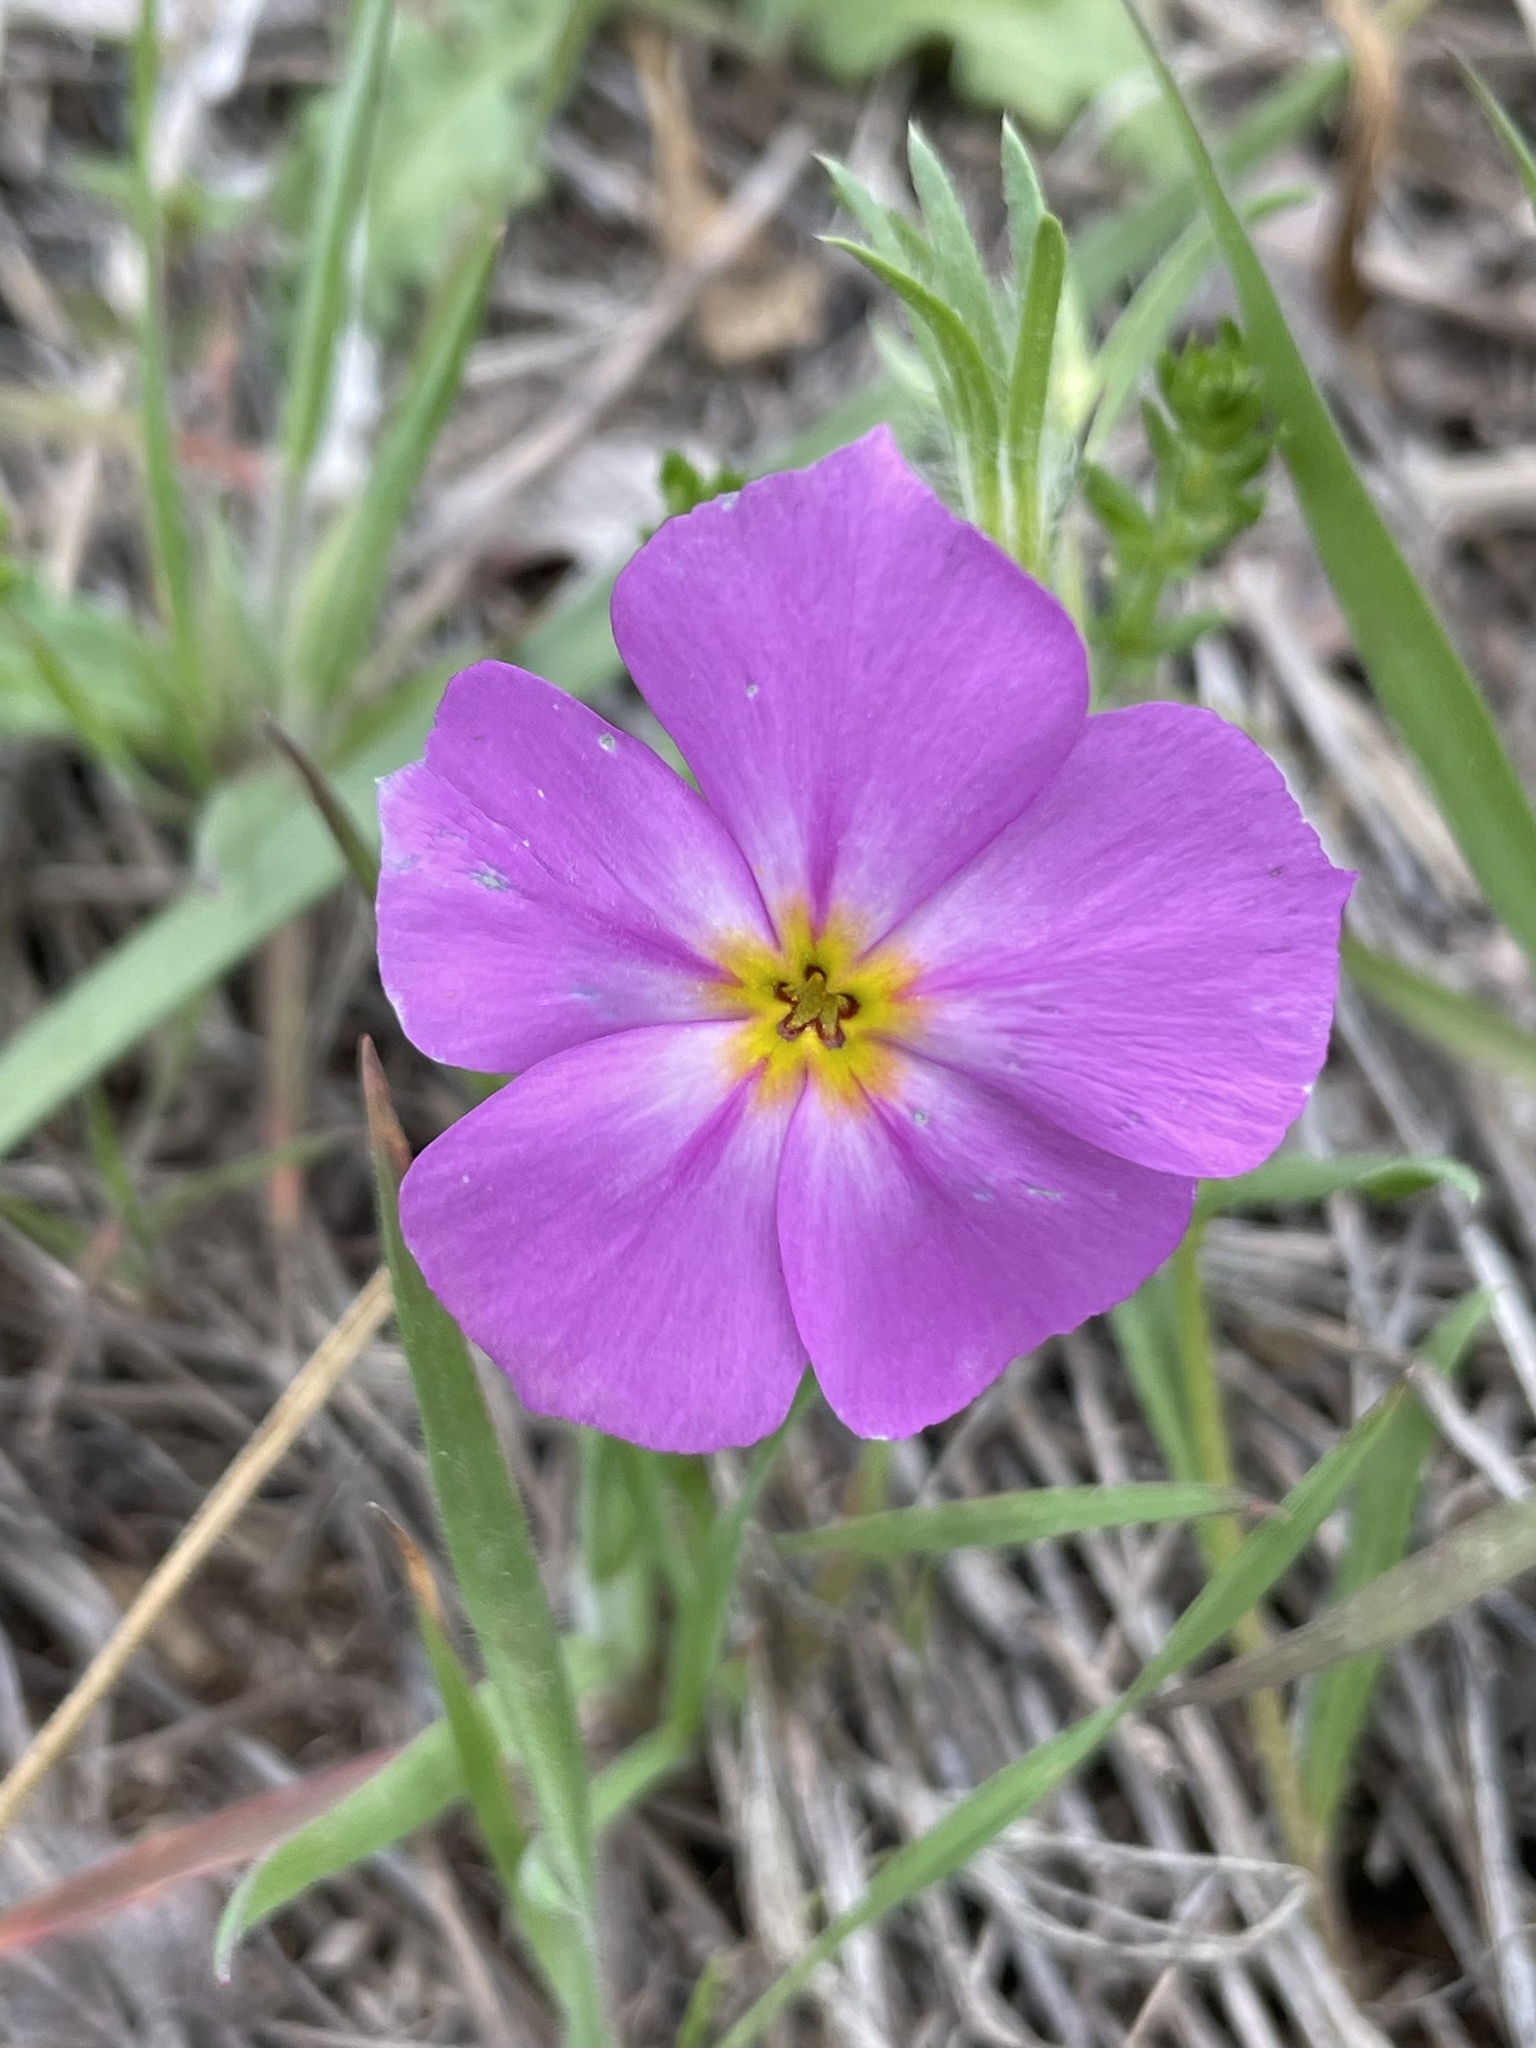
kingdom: Plantae
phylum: Tracheophyta
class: Magnoliopsida
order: Ericales
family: Polemoniaceae
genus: Phlox
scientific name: Phlox roemeriana
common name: Roemer's phlox
